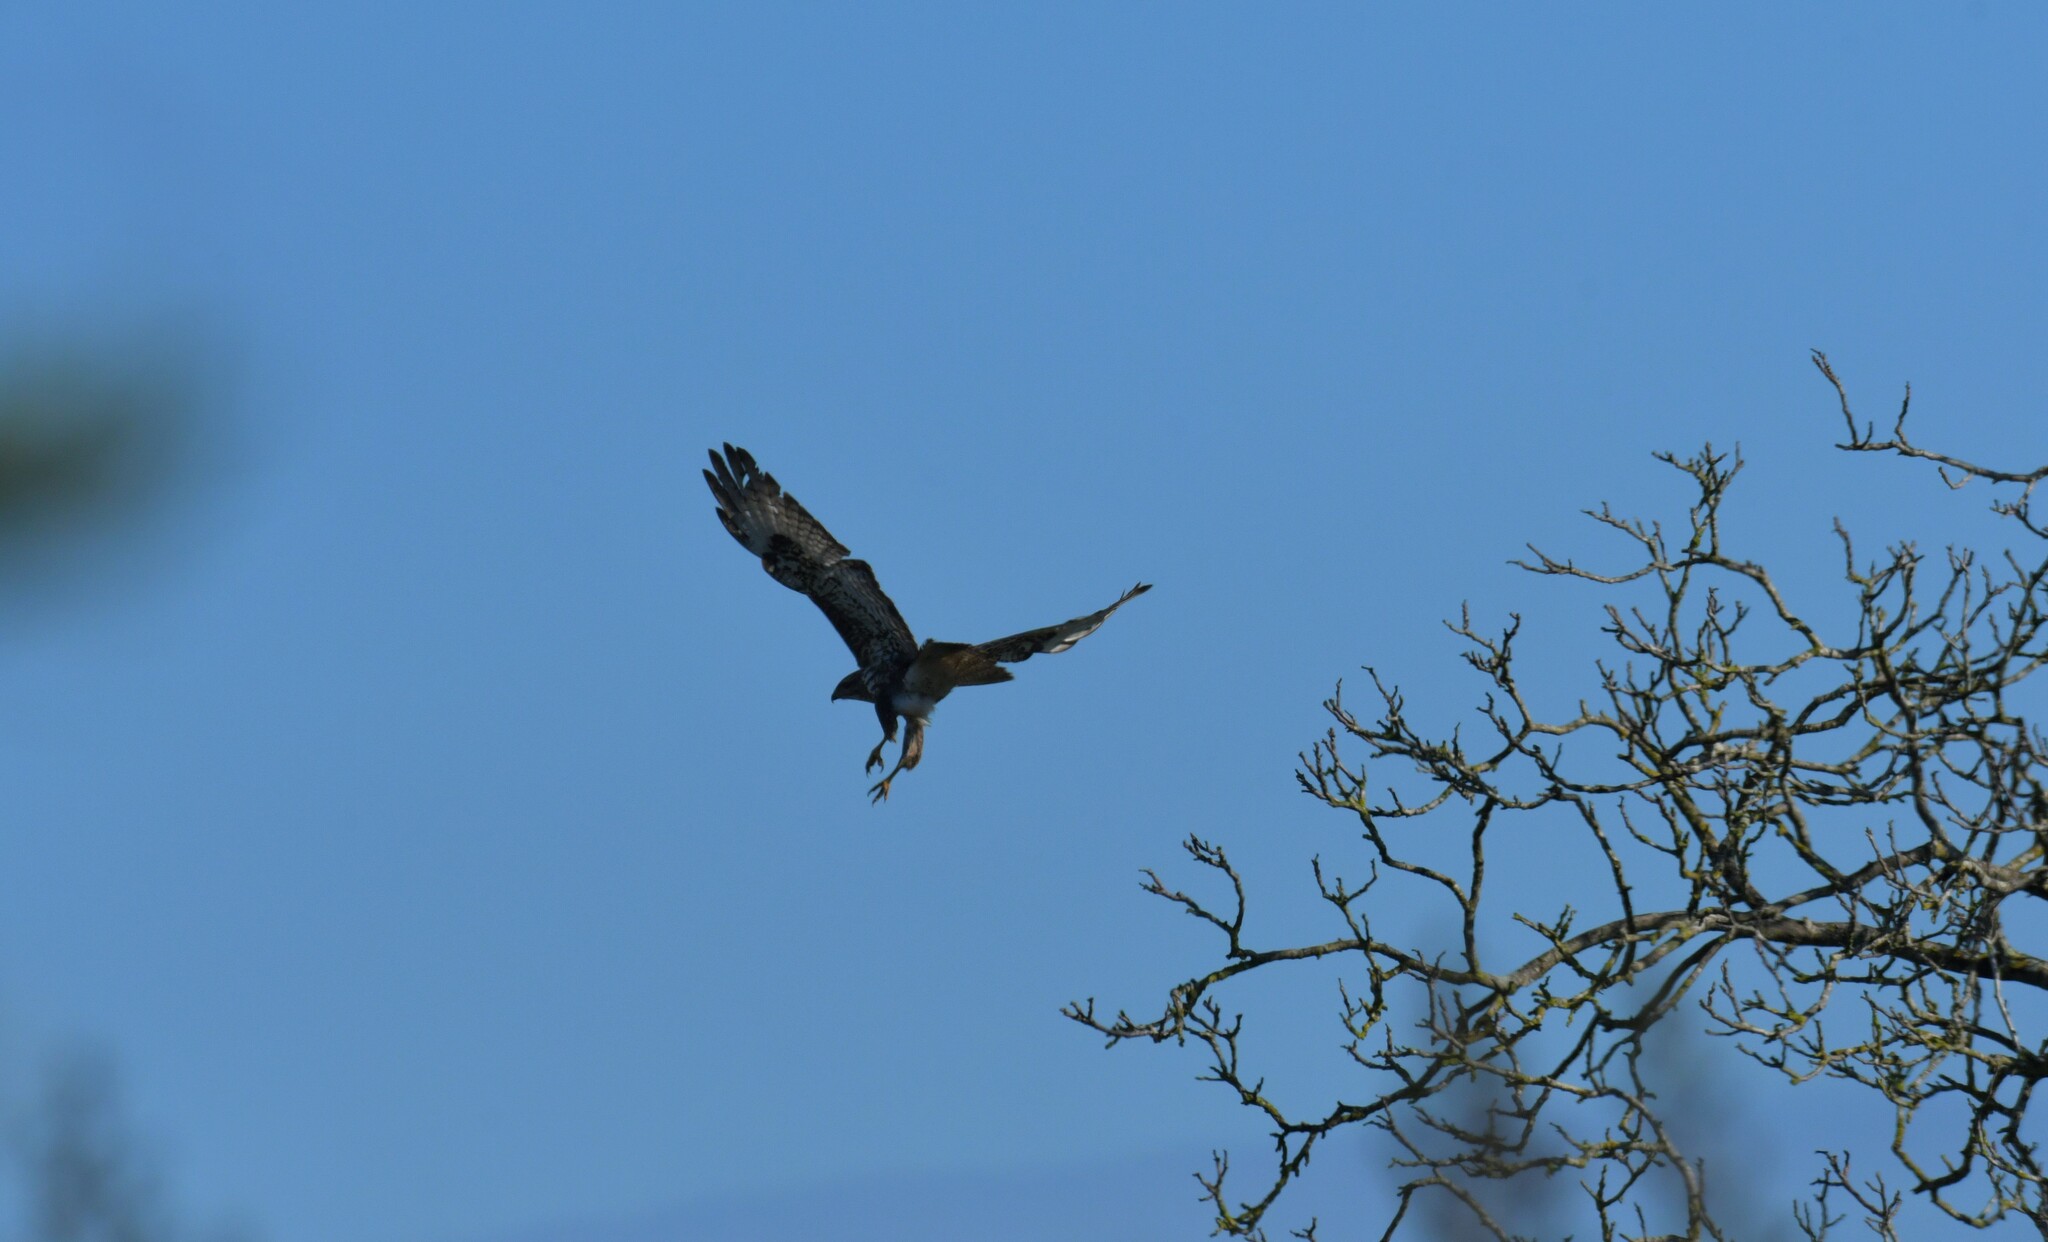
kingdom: Animalia
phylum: Chordata
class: Aves
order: Accipitriformes
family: Accipitridae
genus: Buteo
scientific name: Buteo buteo
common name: Common buzzard
